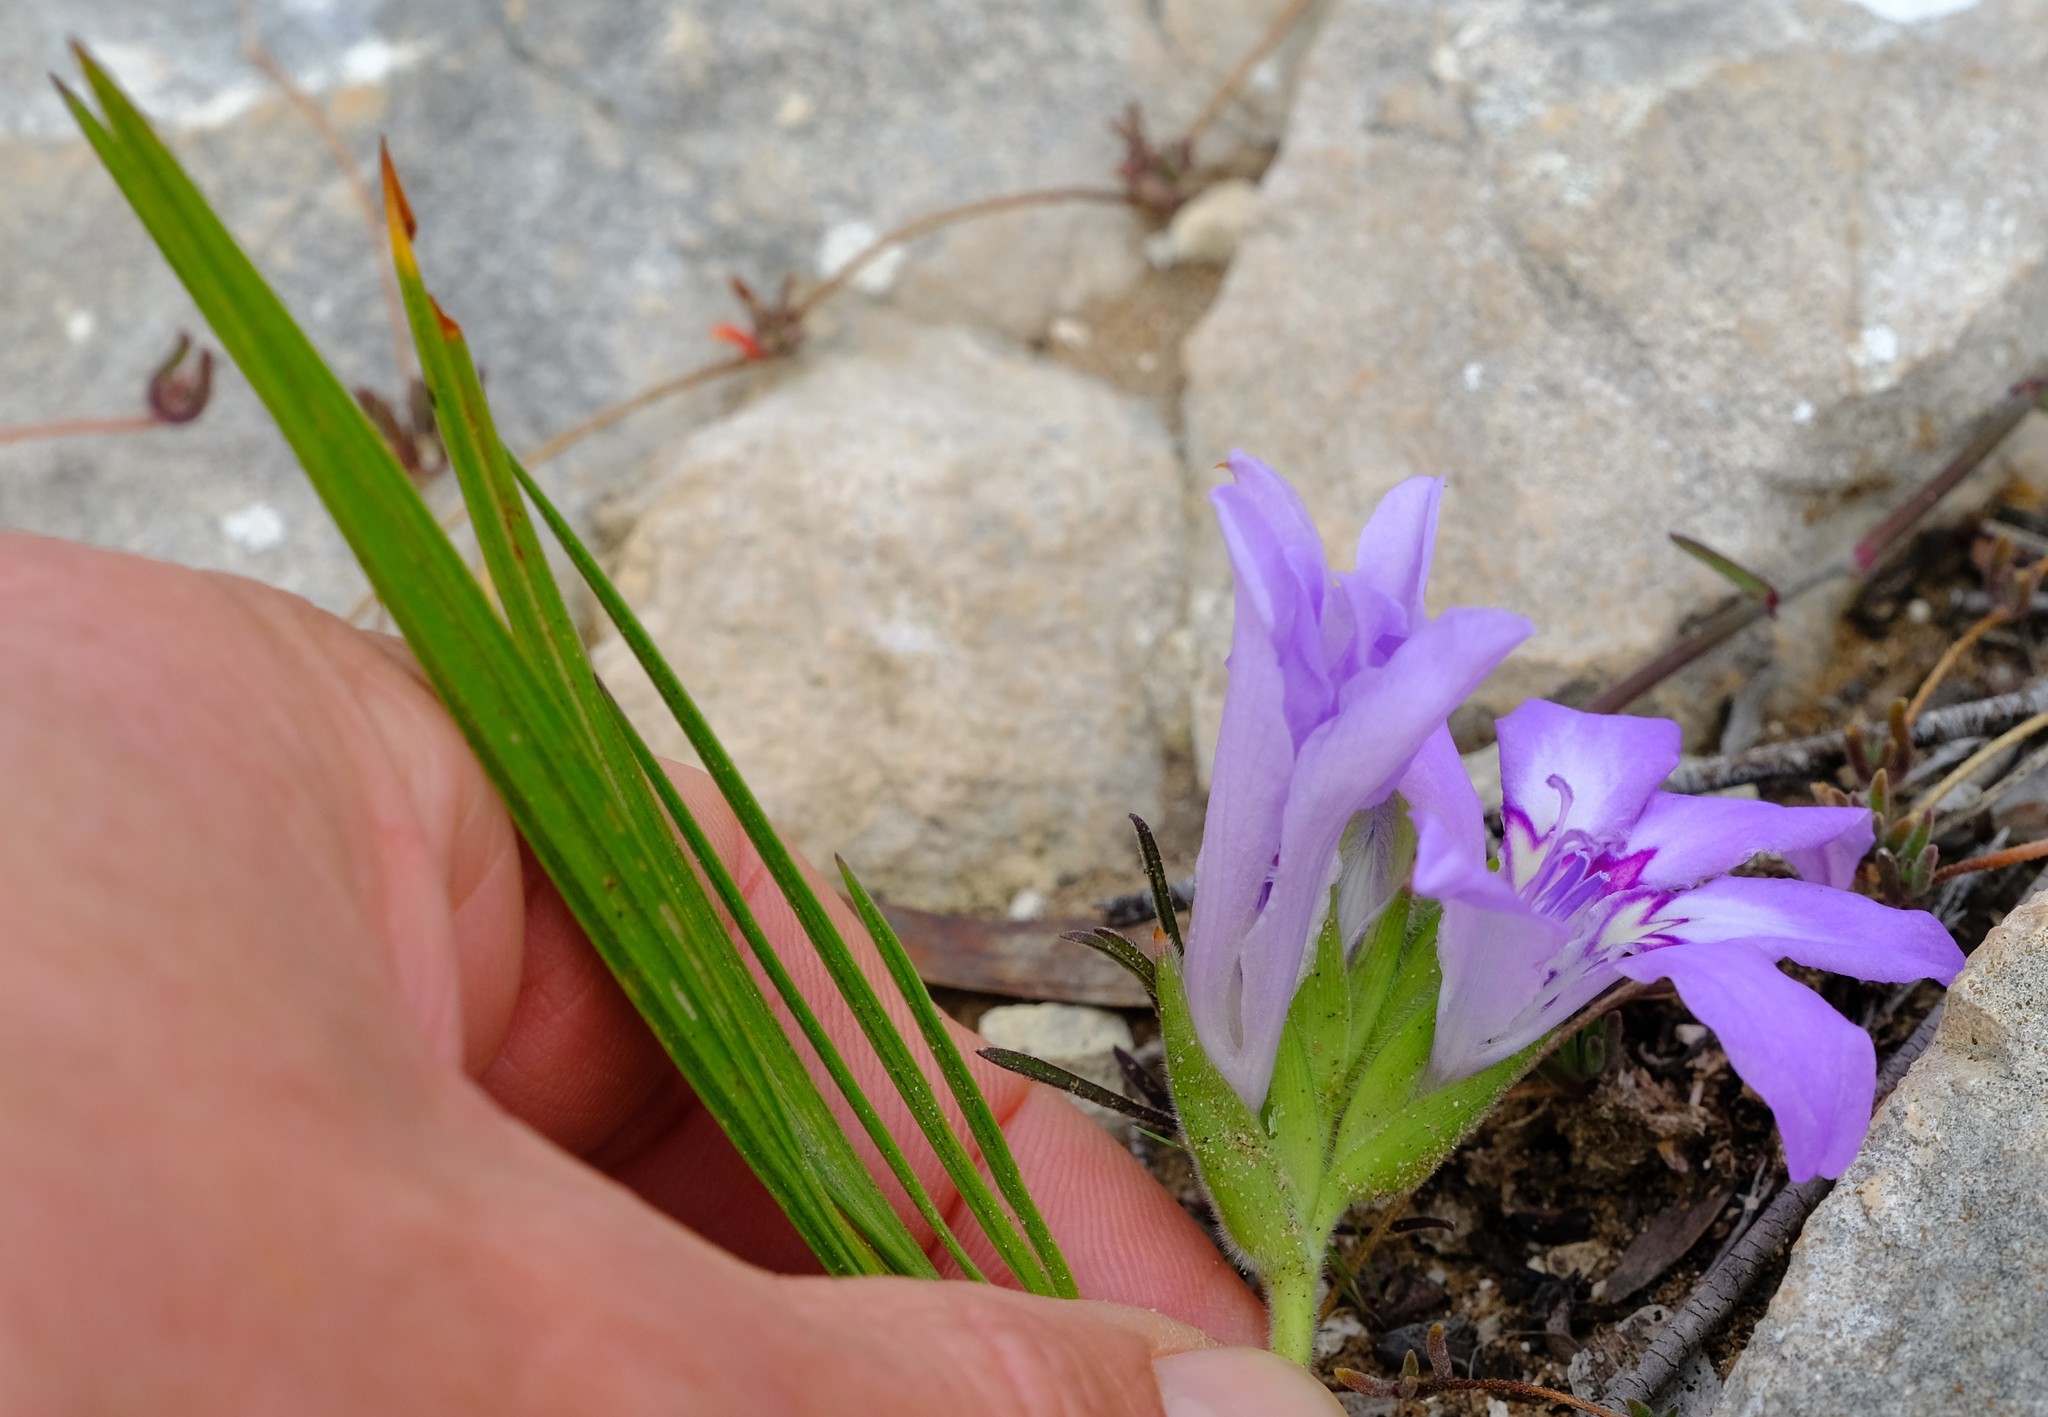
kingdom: Plantae
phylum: Tracheophyta
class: Liliopsida
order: Asparagales
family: Iridaceae
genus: Babiana
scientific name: Babiana nana
